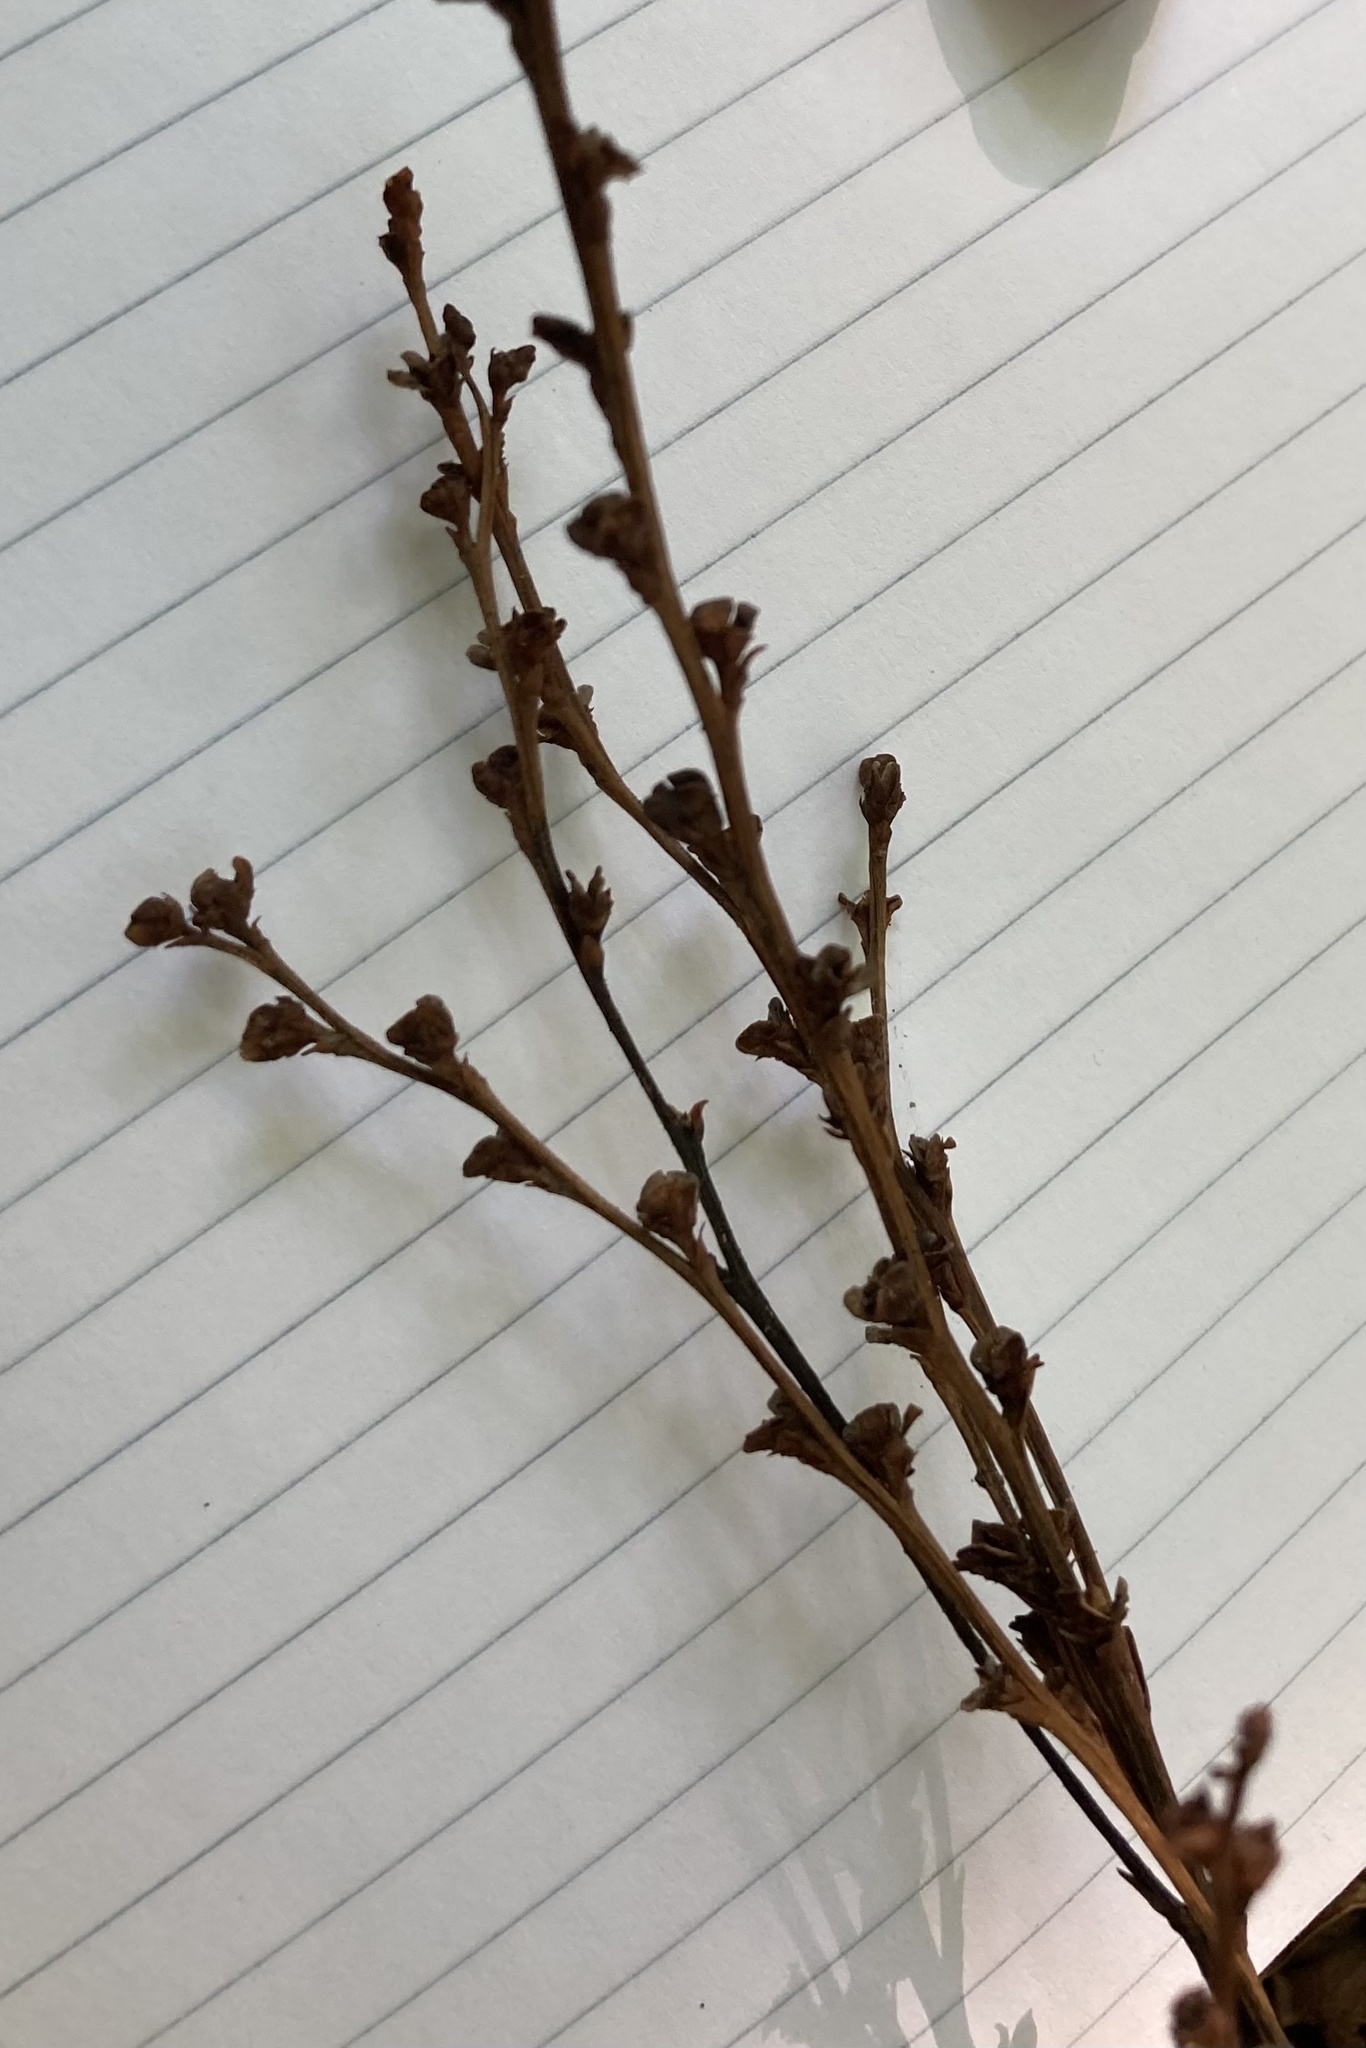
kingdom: Plantae
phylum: Tracheophyta
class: Magnoliopsida
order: Lamiales
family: Orobanchaceae
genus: Epifagus
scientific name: Epifagus virginiana
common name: Beechdrops
